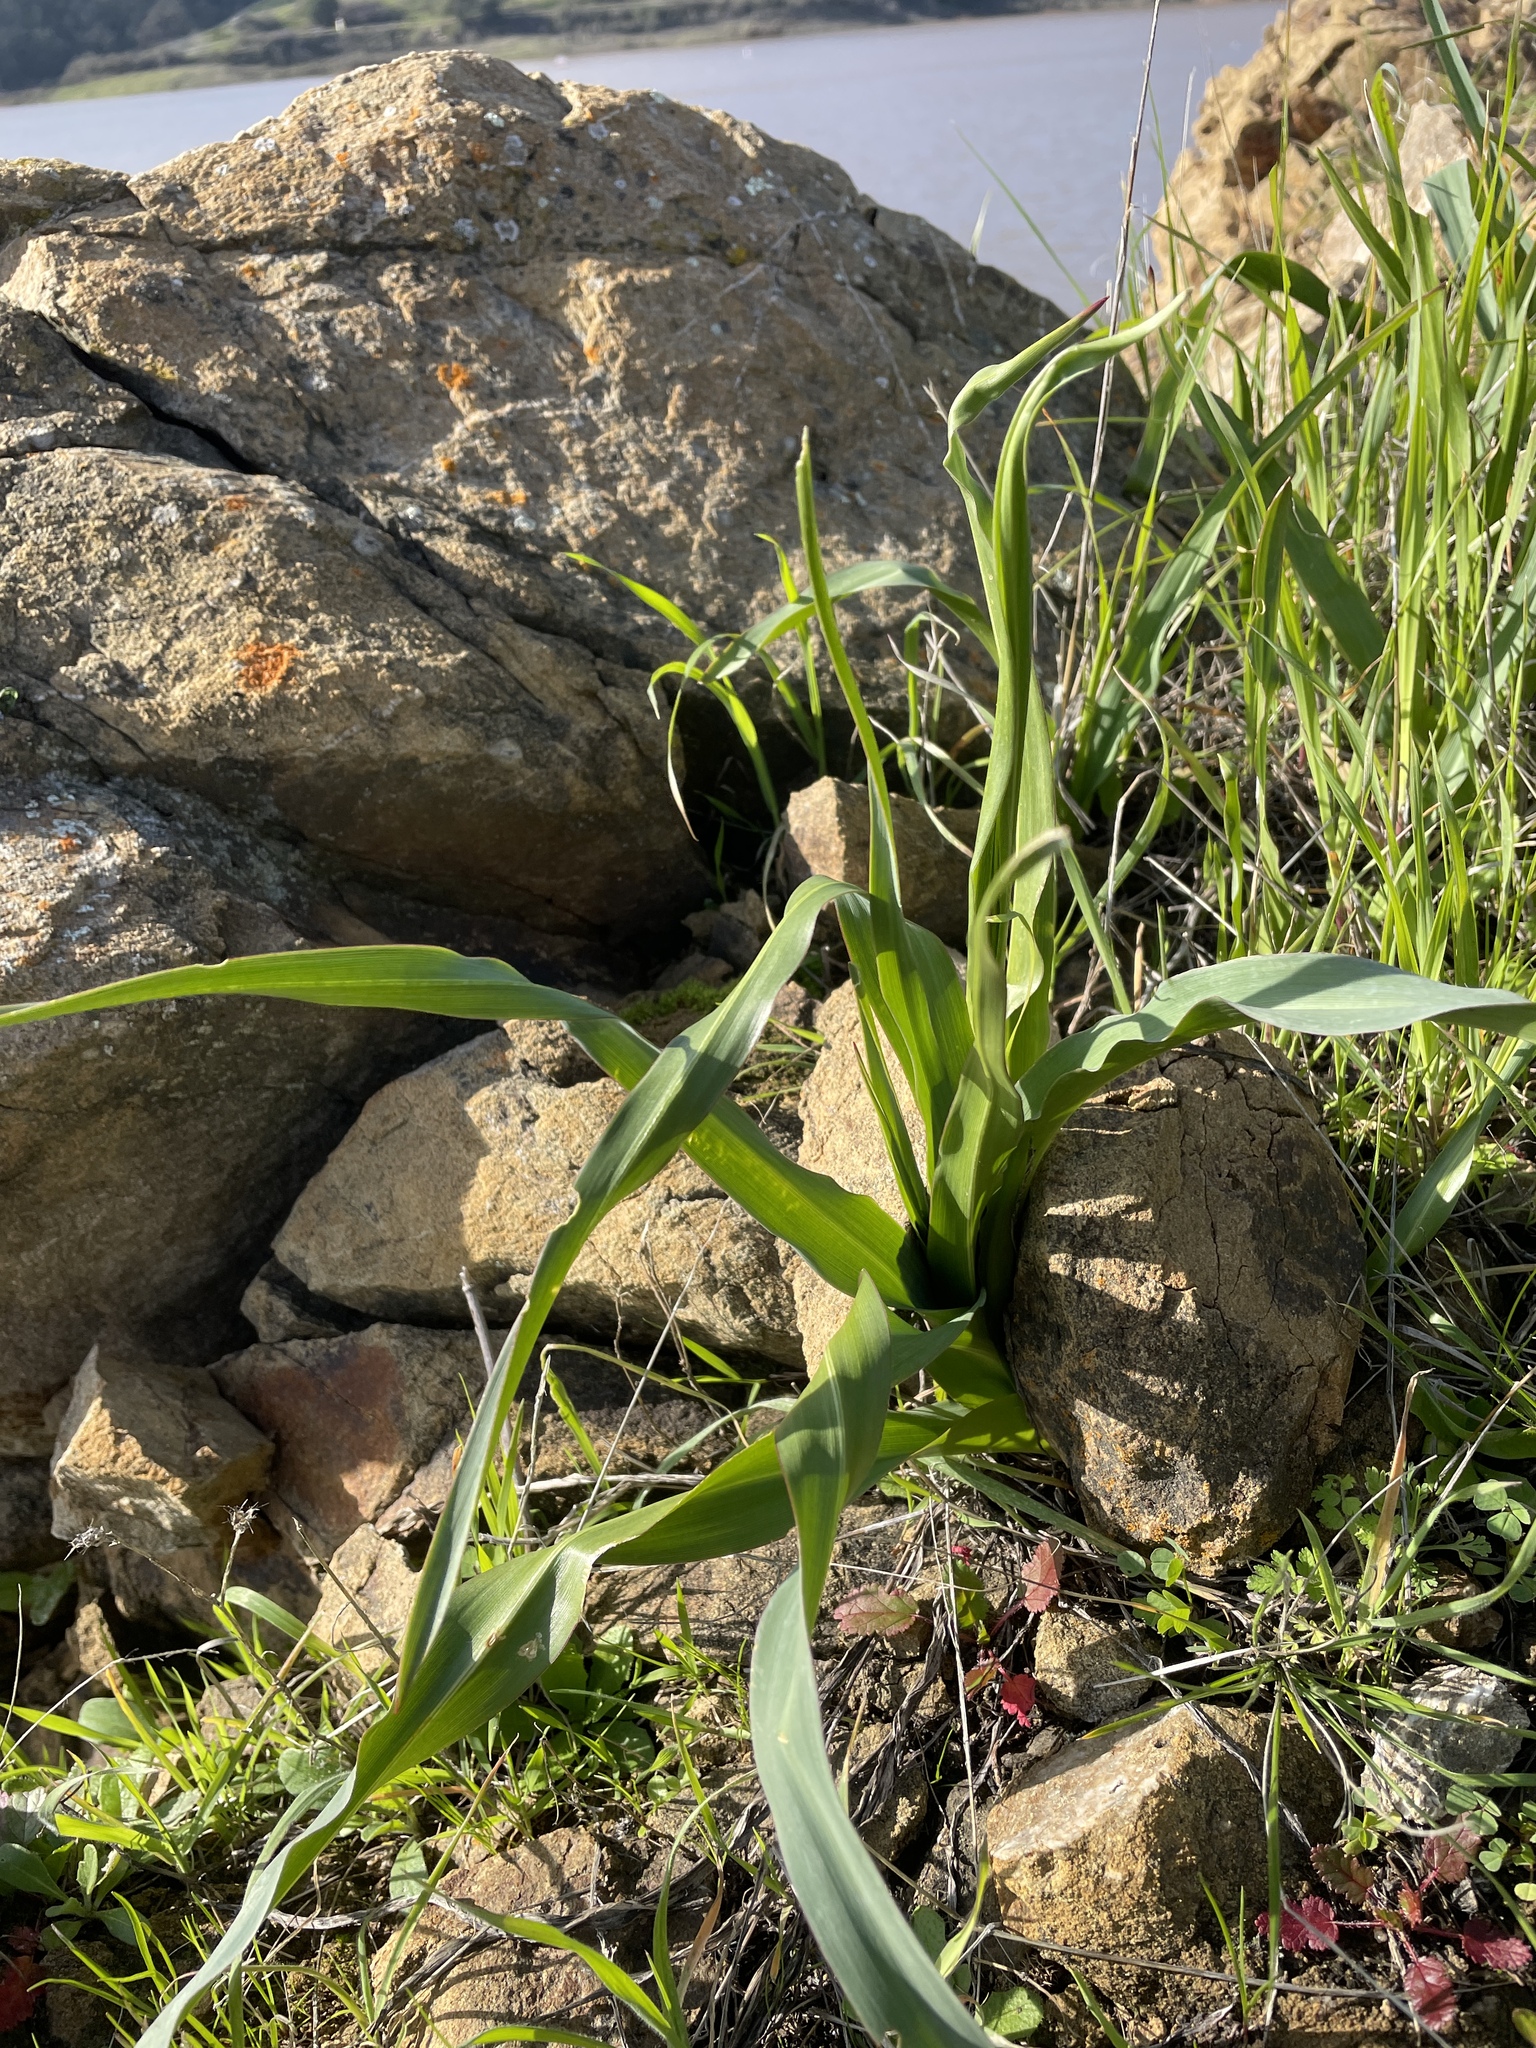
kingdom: Plantae
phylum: Tracheophyta
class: Liliopsida
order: Asparagales
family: Asparagaceae
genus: Chlorogalum
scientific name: Chlorogalum pomeridianum
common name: Amole
